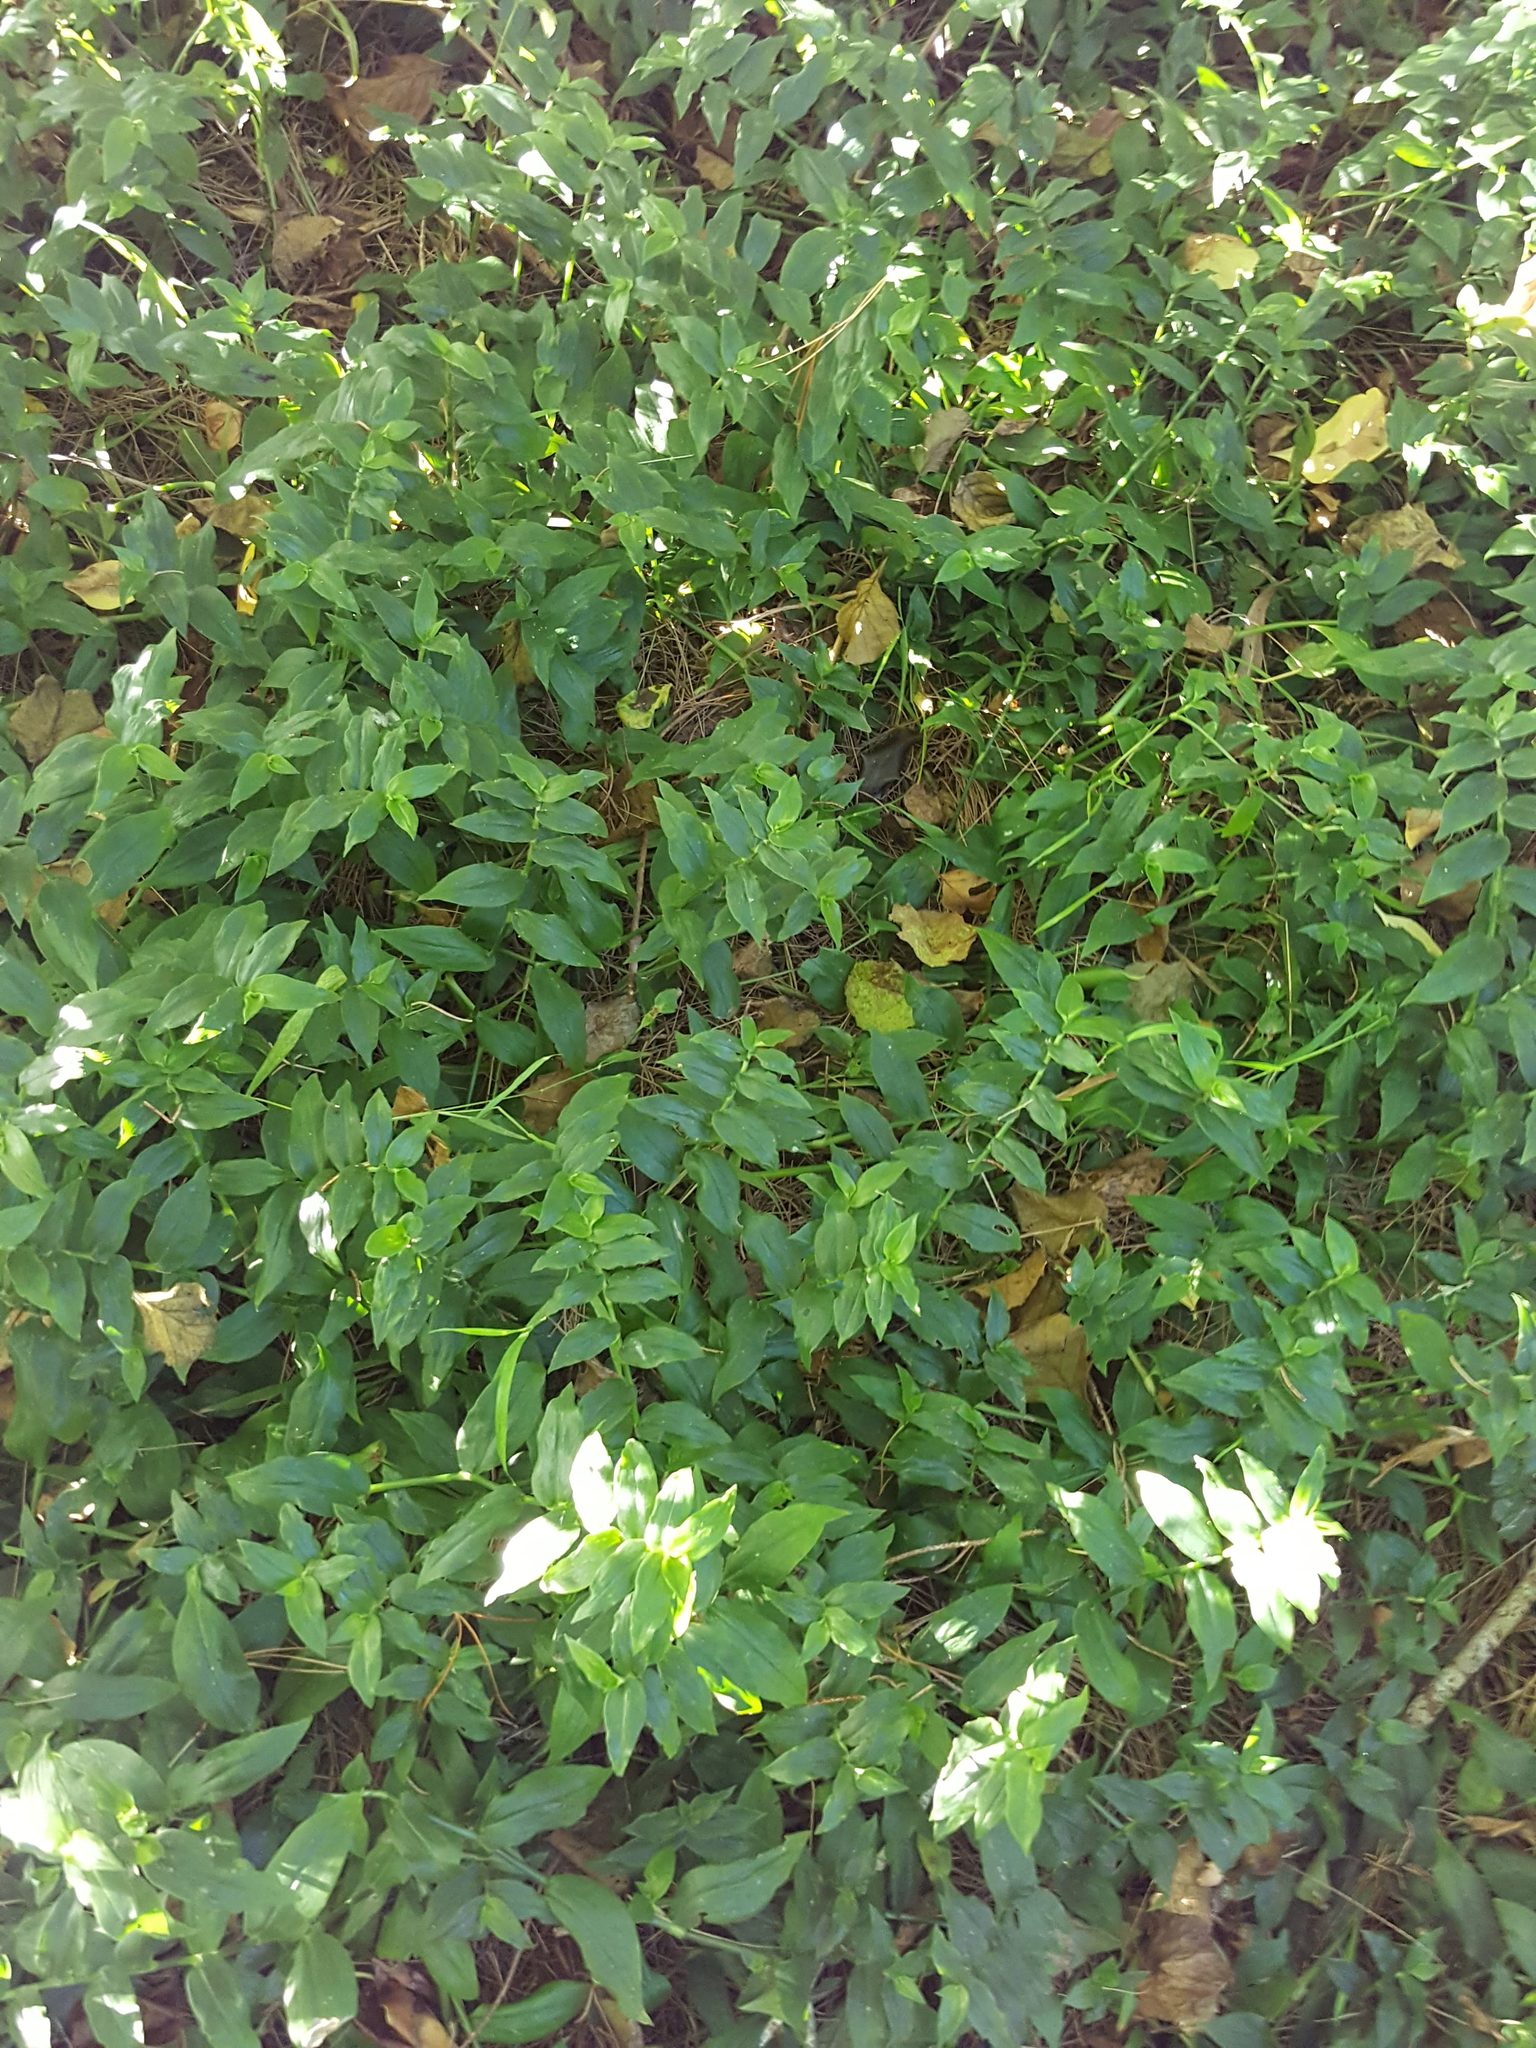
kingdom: Plantae
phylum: Tracheophyta
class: Liliopsida
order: Commelinales
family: Commelinaceae
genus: Tradescantia
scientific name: Tradescantia fluminensis
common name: Wandering-jew
